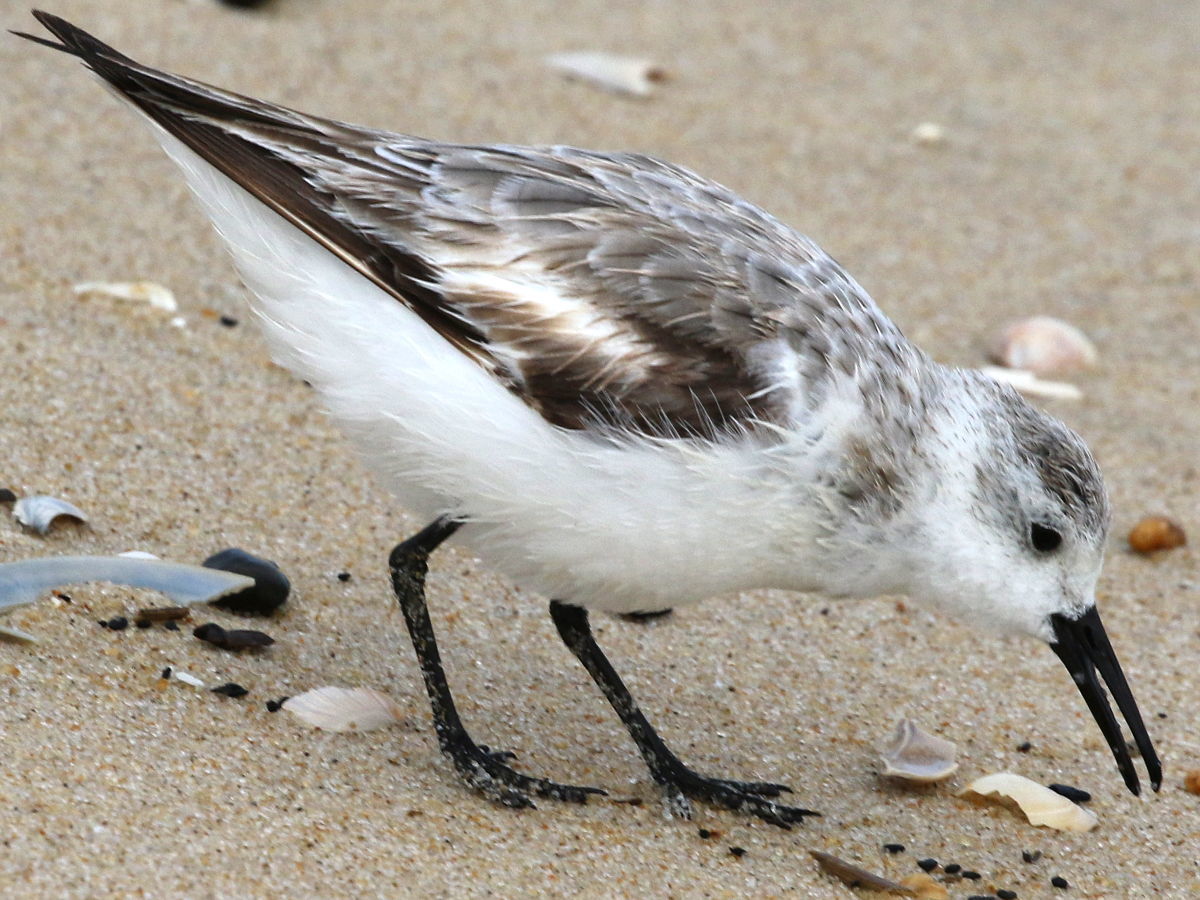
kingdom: Animalia
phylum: Chordata
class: Aves
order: Charadriiformes
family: Scolopacidae
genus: Calidris
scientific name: Calidris alba
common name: Sanderling
